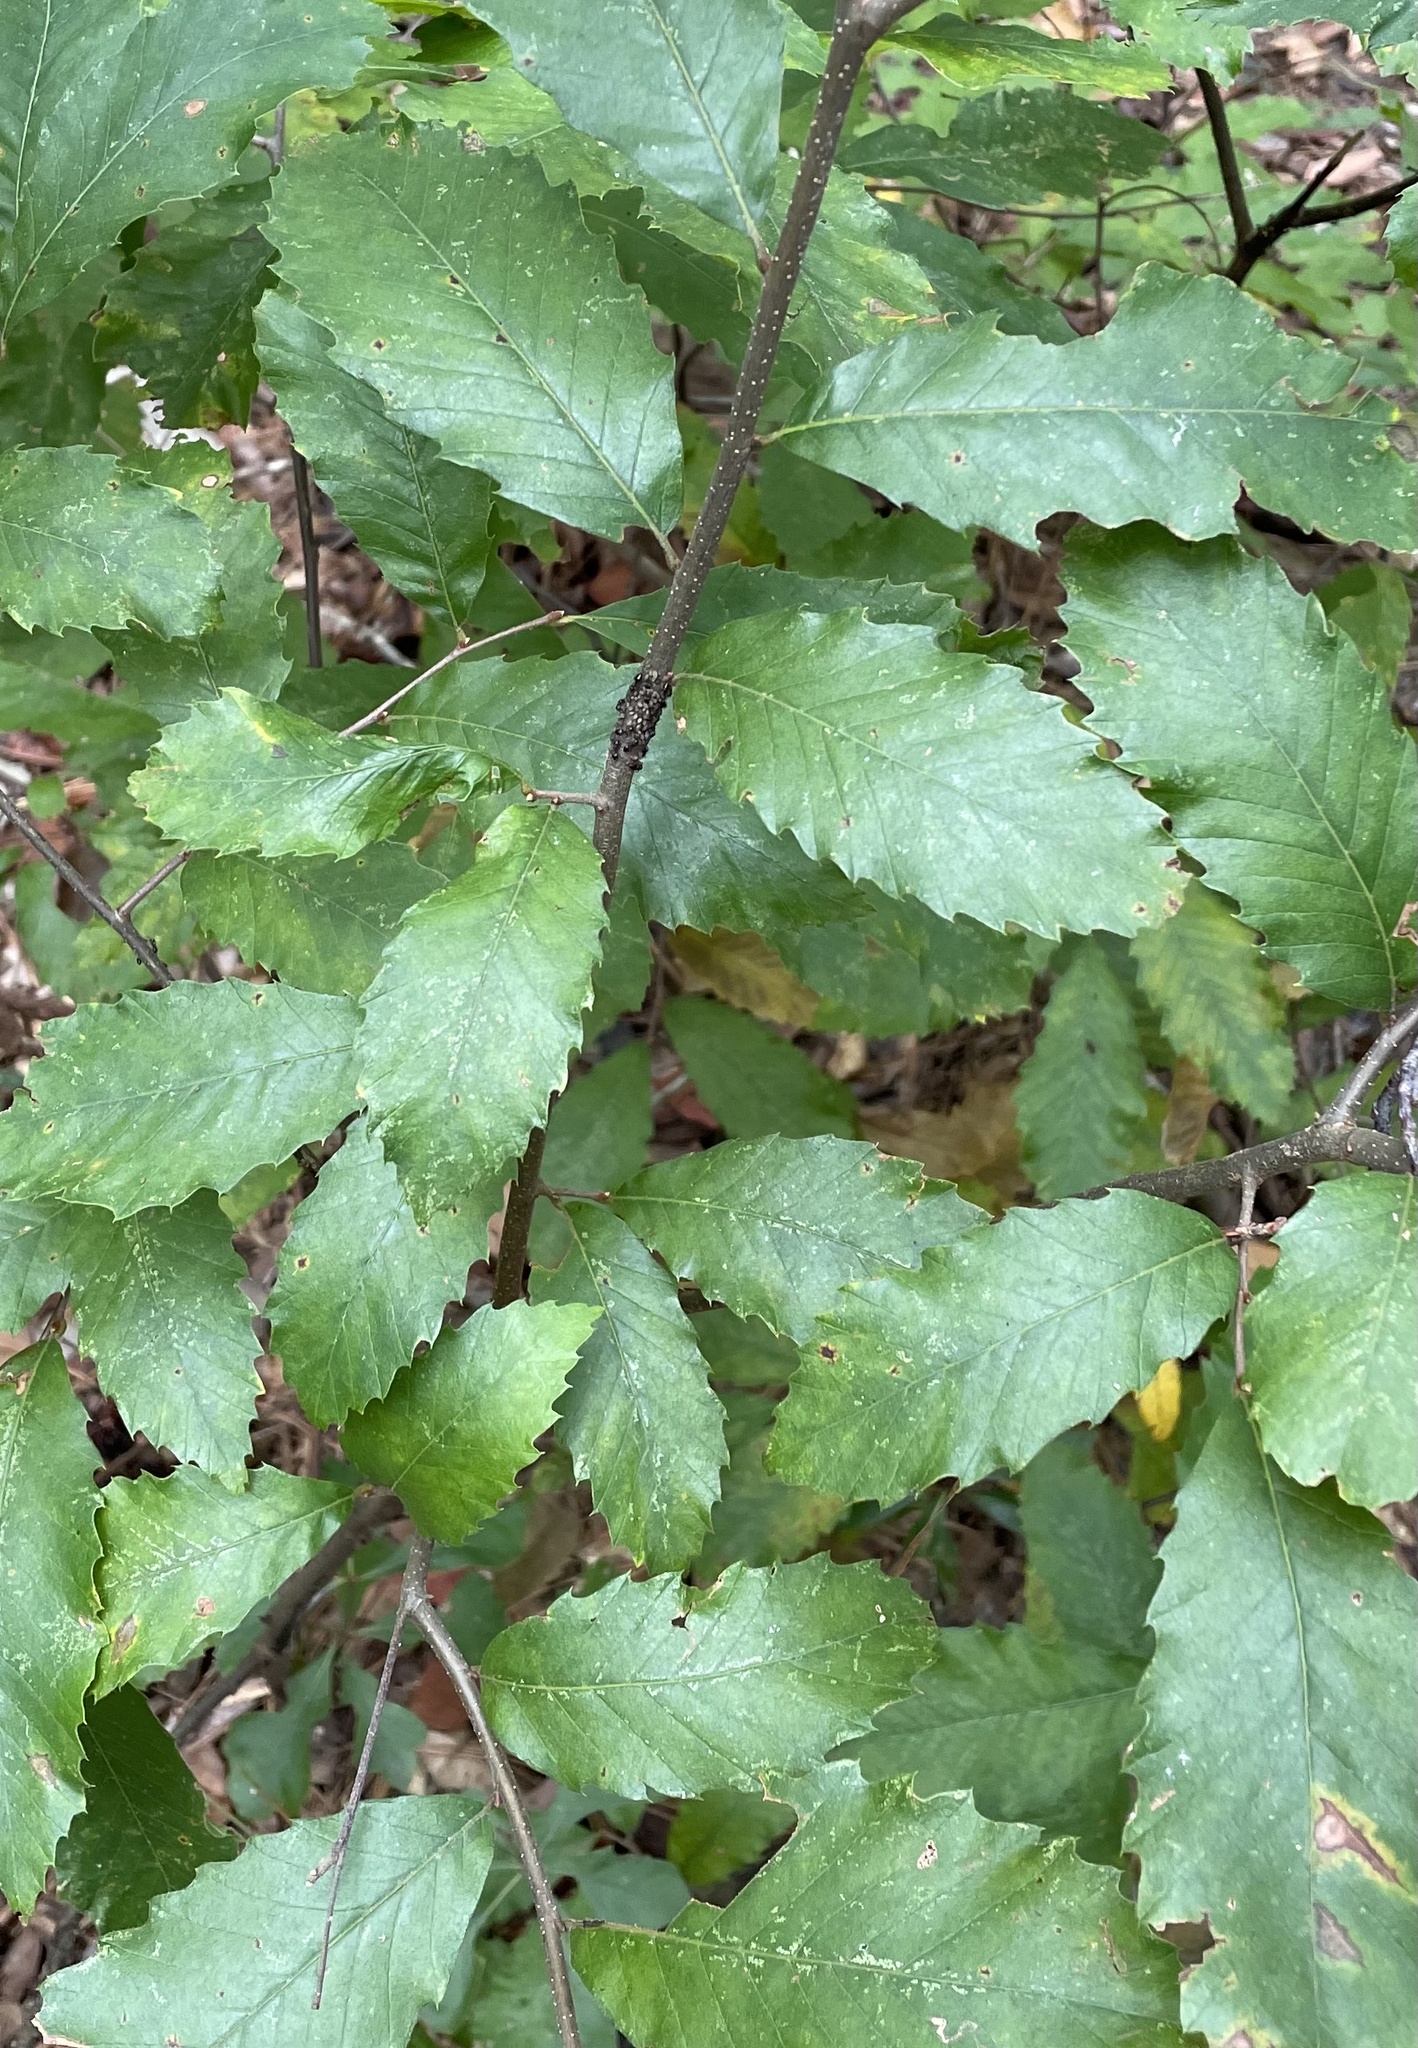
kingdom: Plantae
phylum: Tracheophyta
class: Magnoliopsida
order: Fagales
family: Fagaceae
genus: Castanea
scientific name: Castanea pumila
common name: Chinkapin
